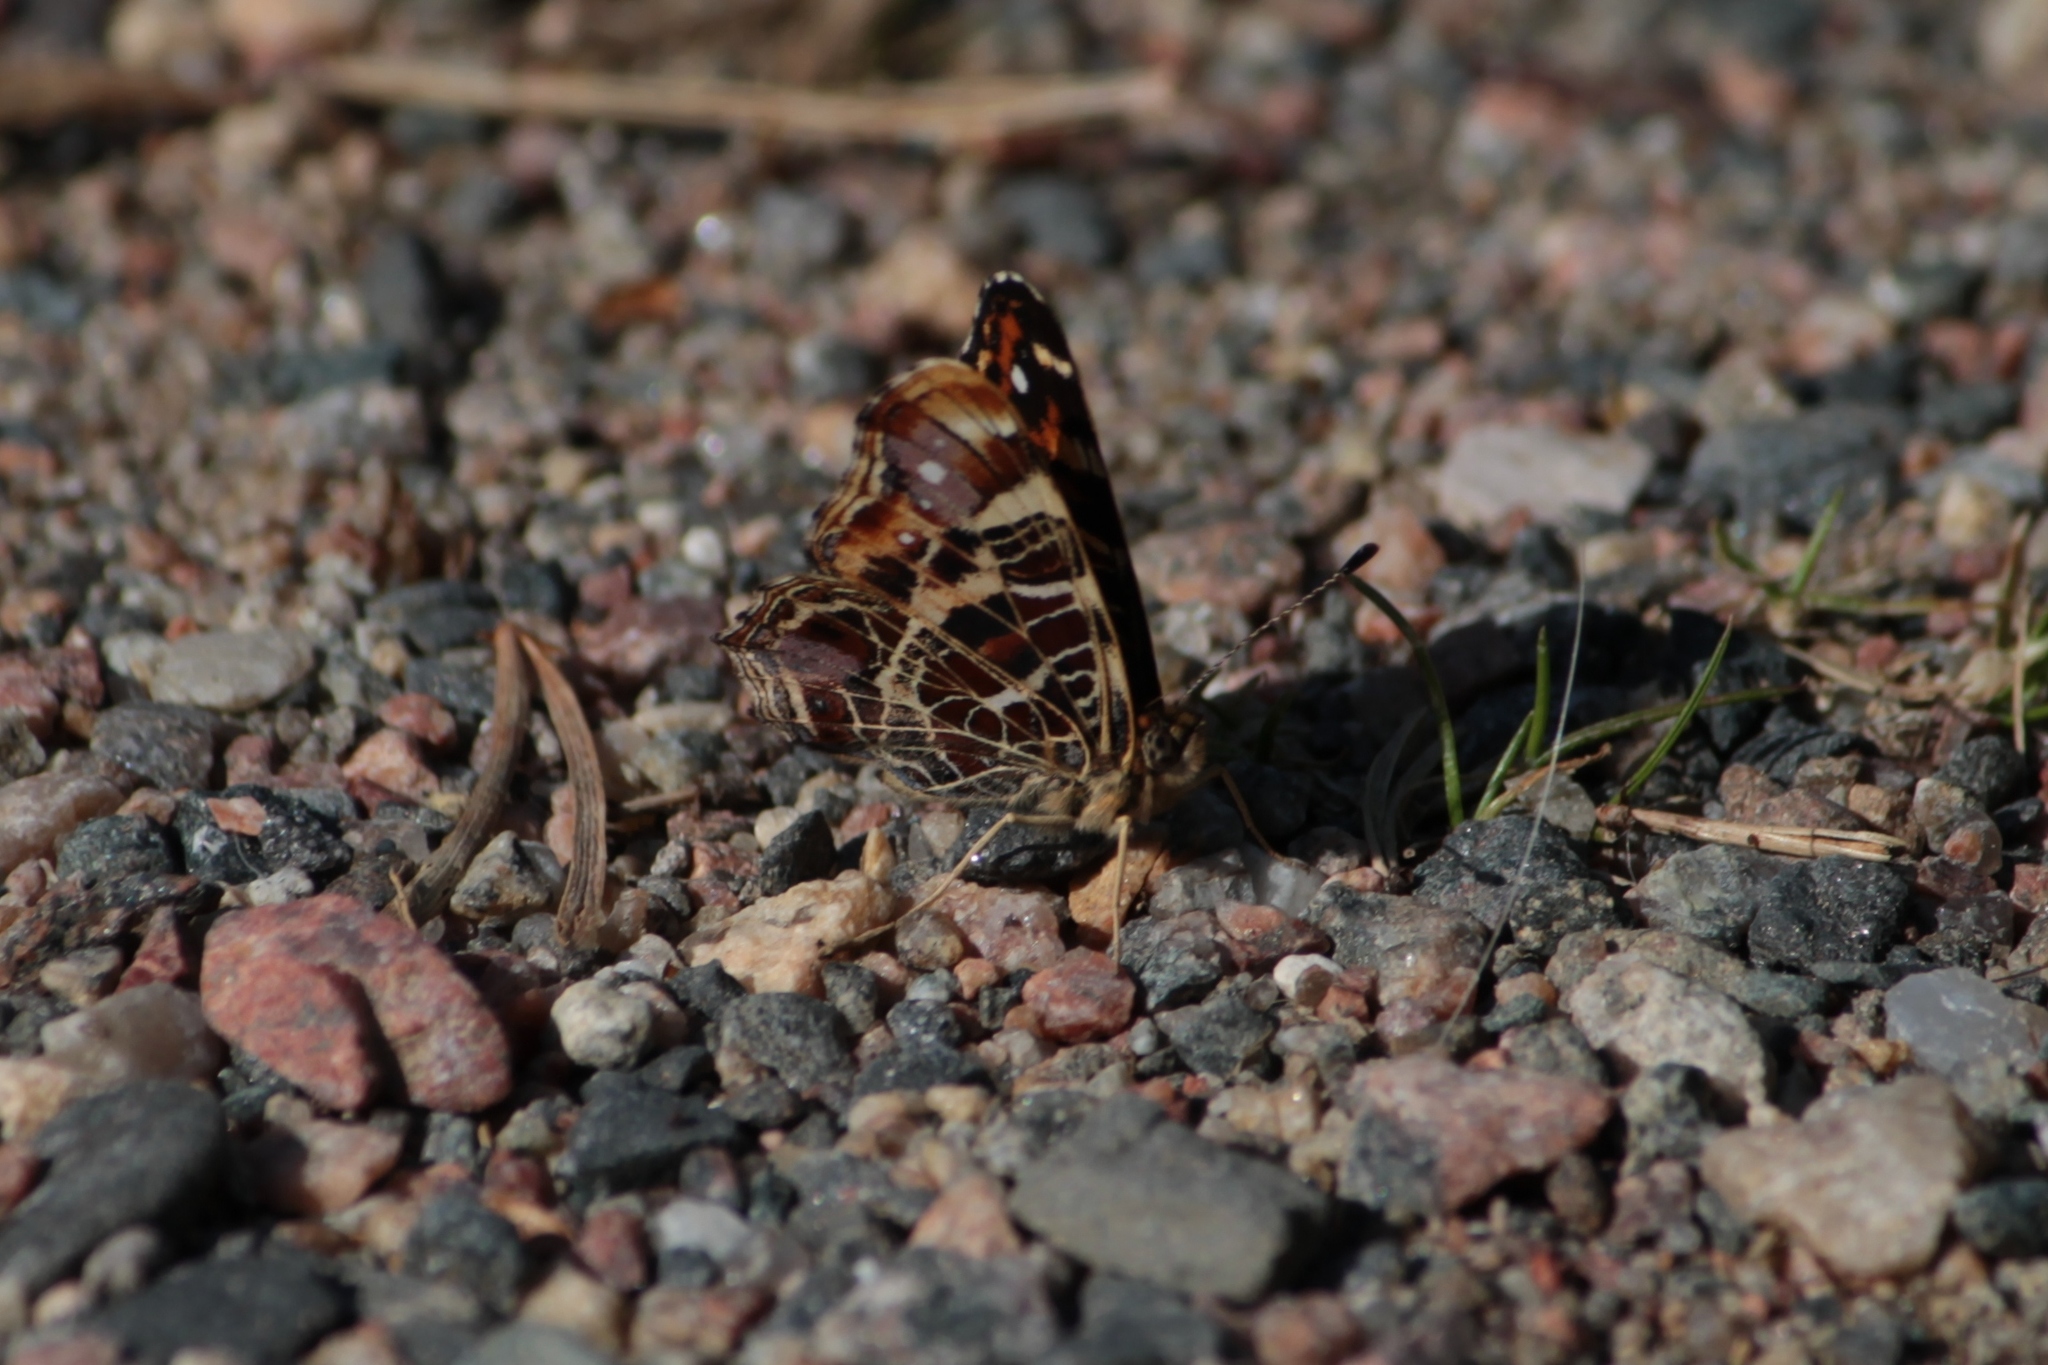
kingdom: Animalia
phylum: Arthropoda
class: Insecta
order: Lepidoptera
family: Nymphalidae
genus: Araschnia
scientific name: Araschnia levana
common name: Map butterfly
